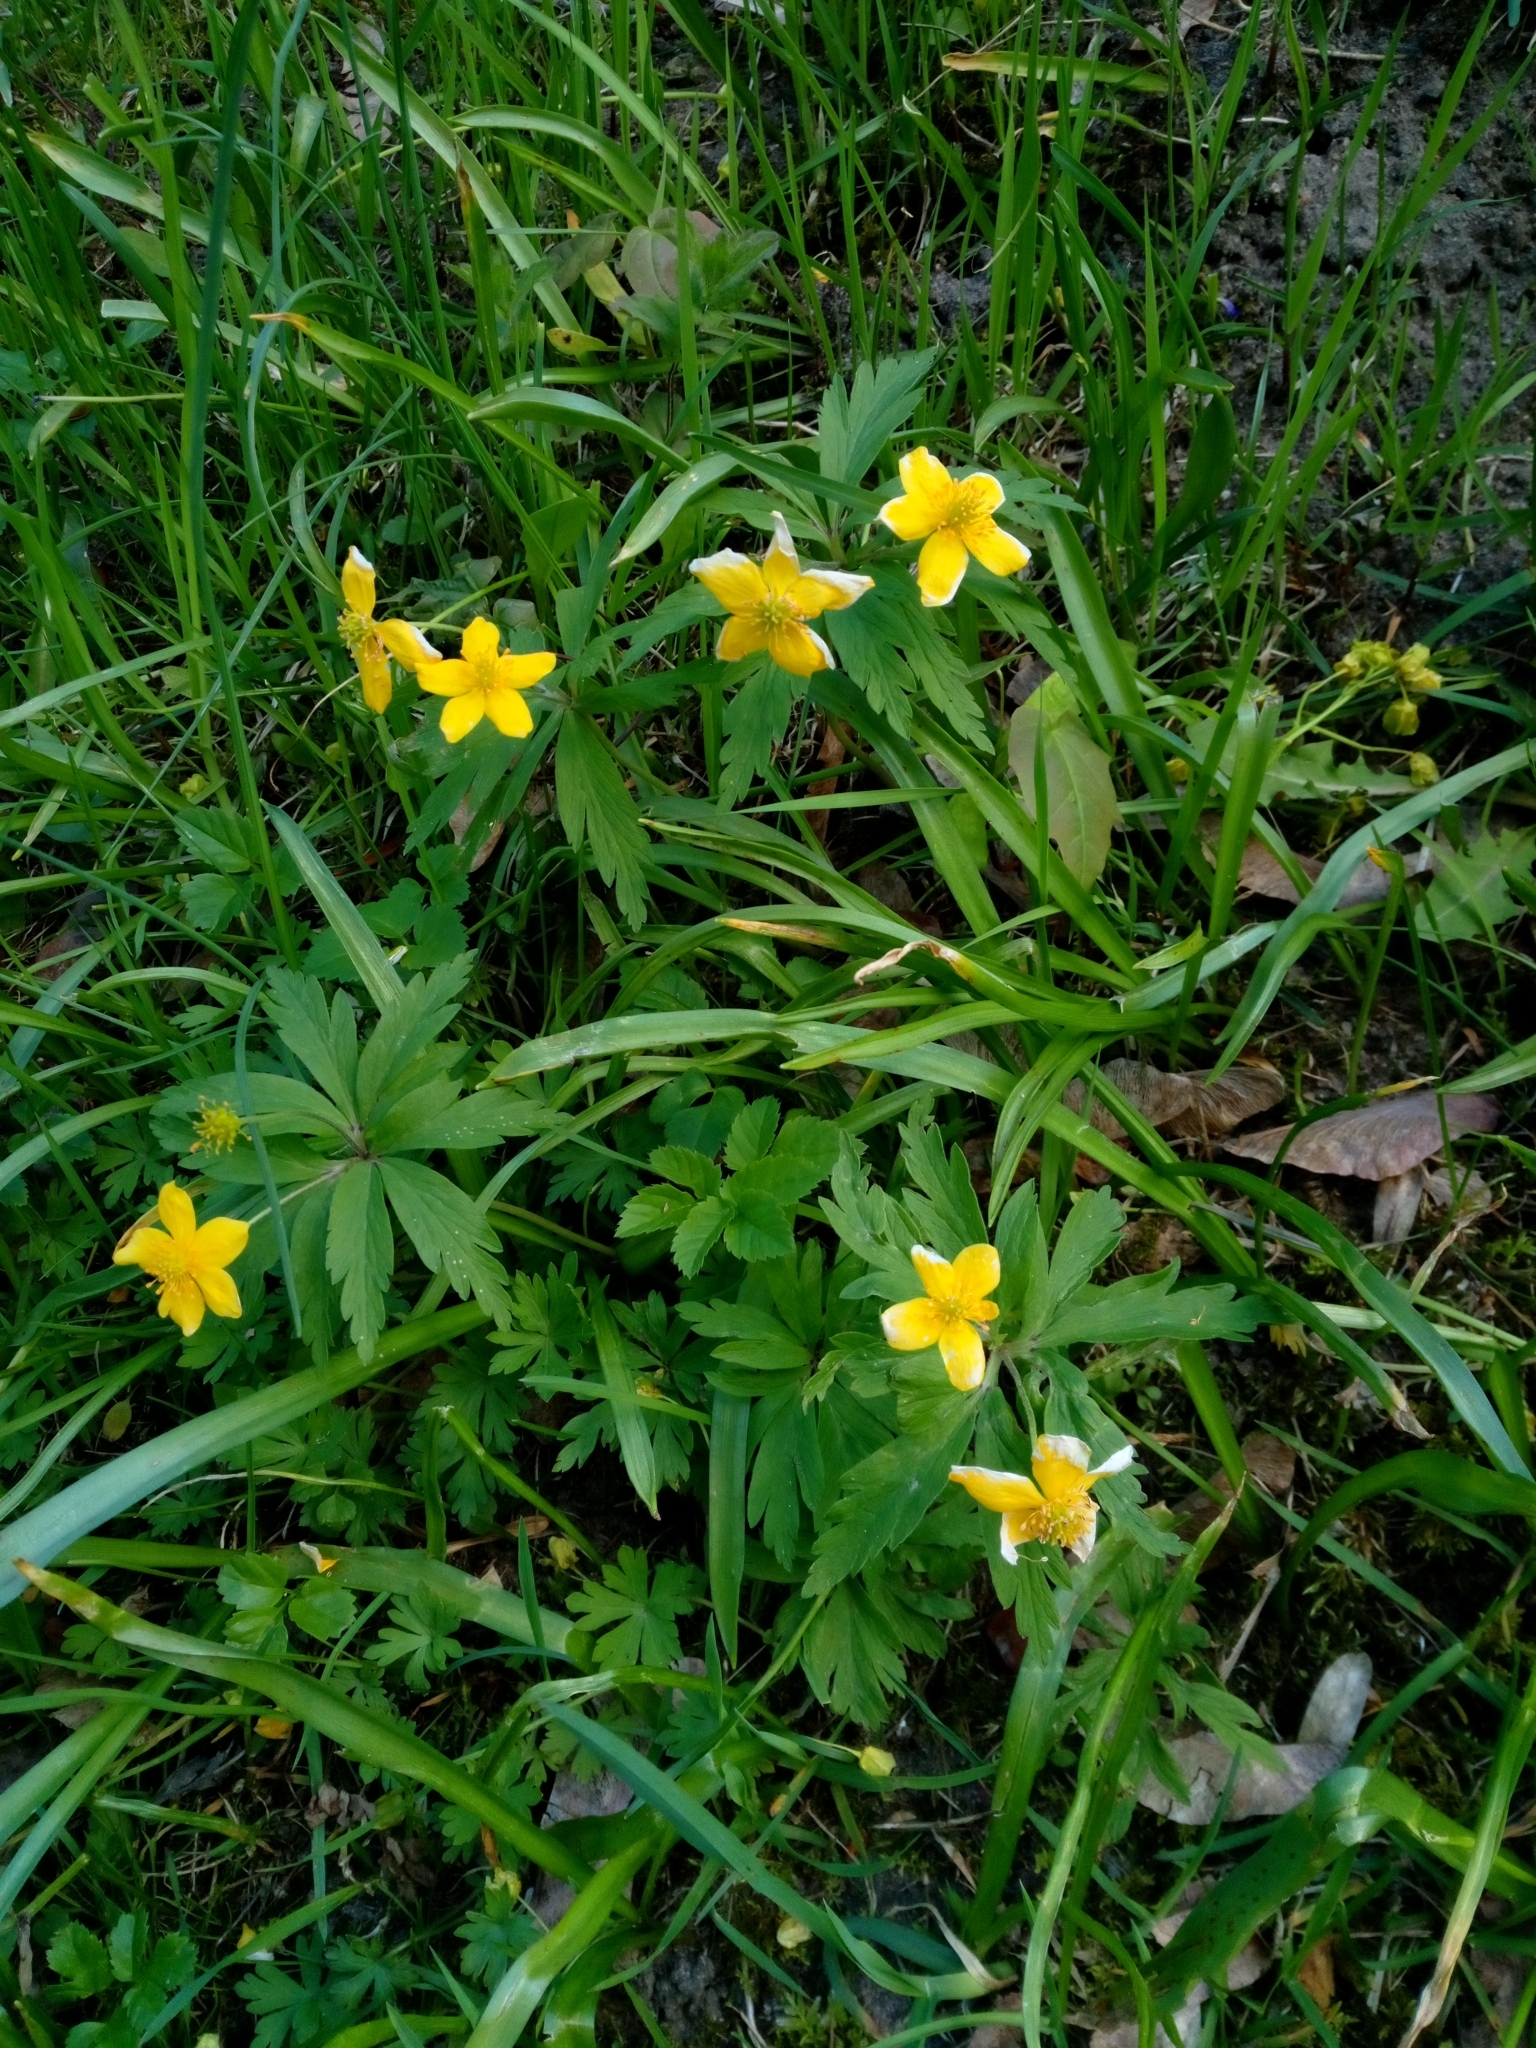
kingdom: Plantae
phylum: Tracheophyta
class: Magnoliopsida
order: Ranunculales
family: Ranunculaceae
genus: Anemone
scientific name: Anemone ranunculoides
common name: Yellow anemone
